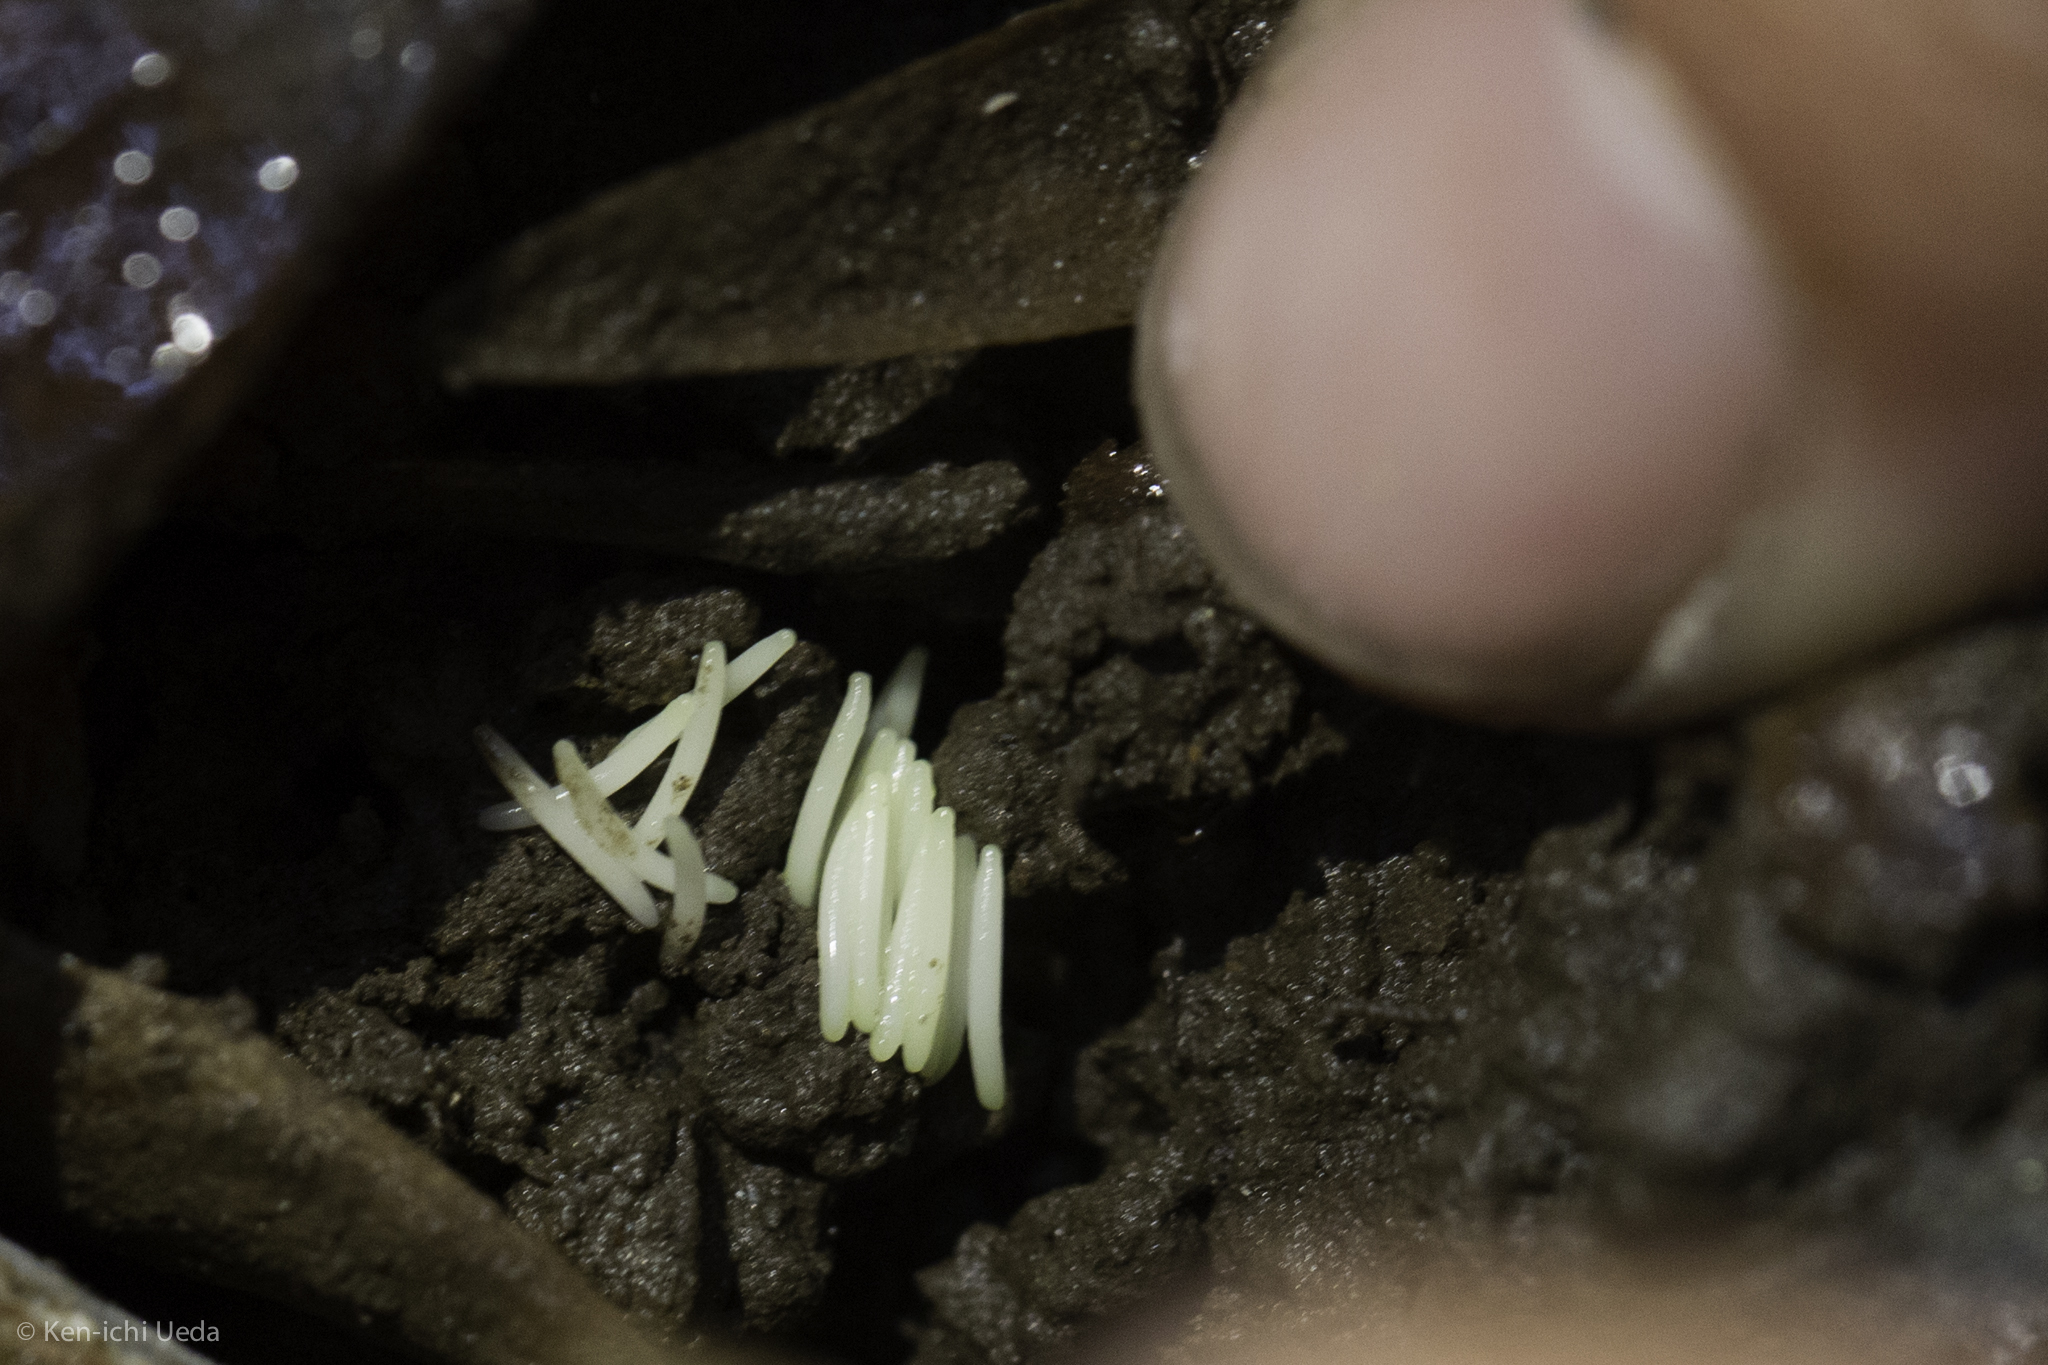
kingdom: Animalia
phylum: Arthropoda
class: Insecta
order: Diptera
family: Xylophagidae
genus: Coenomyia
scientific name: Coenomyia ferruginea
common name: Stink fly
